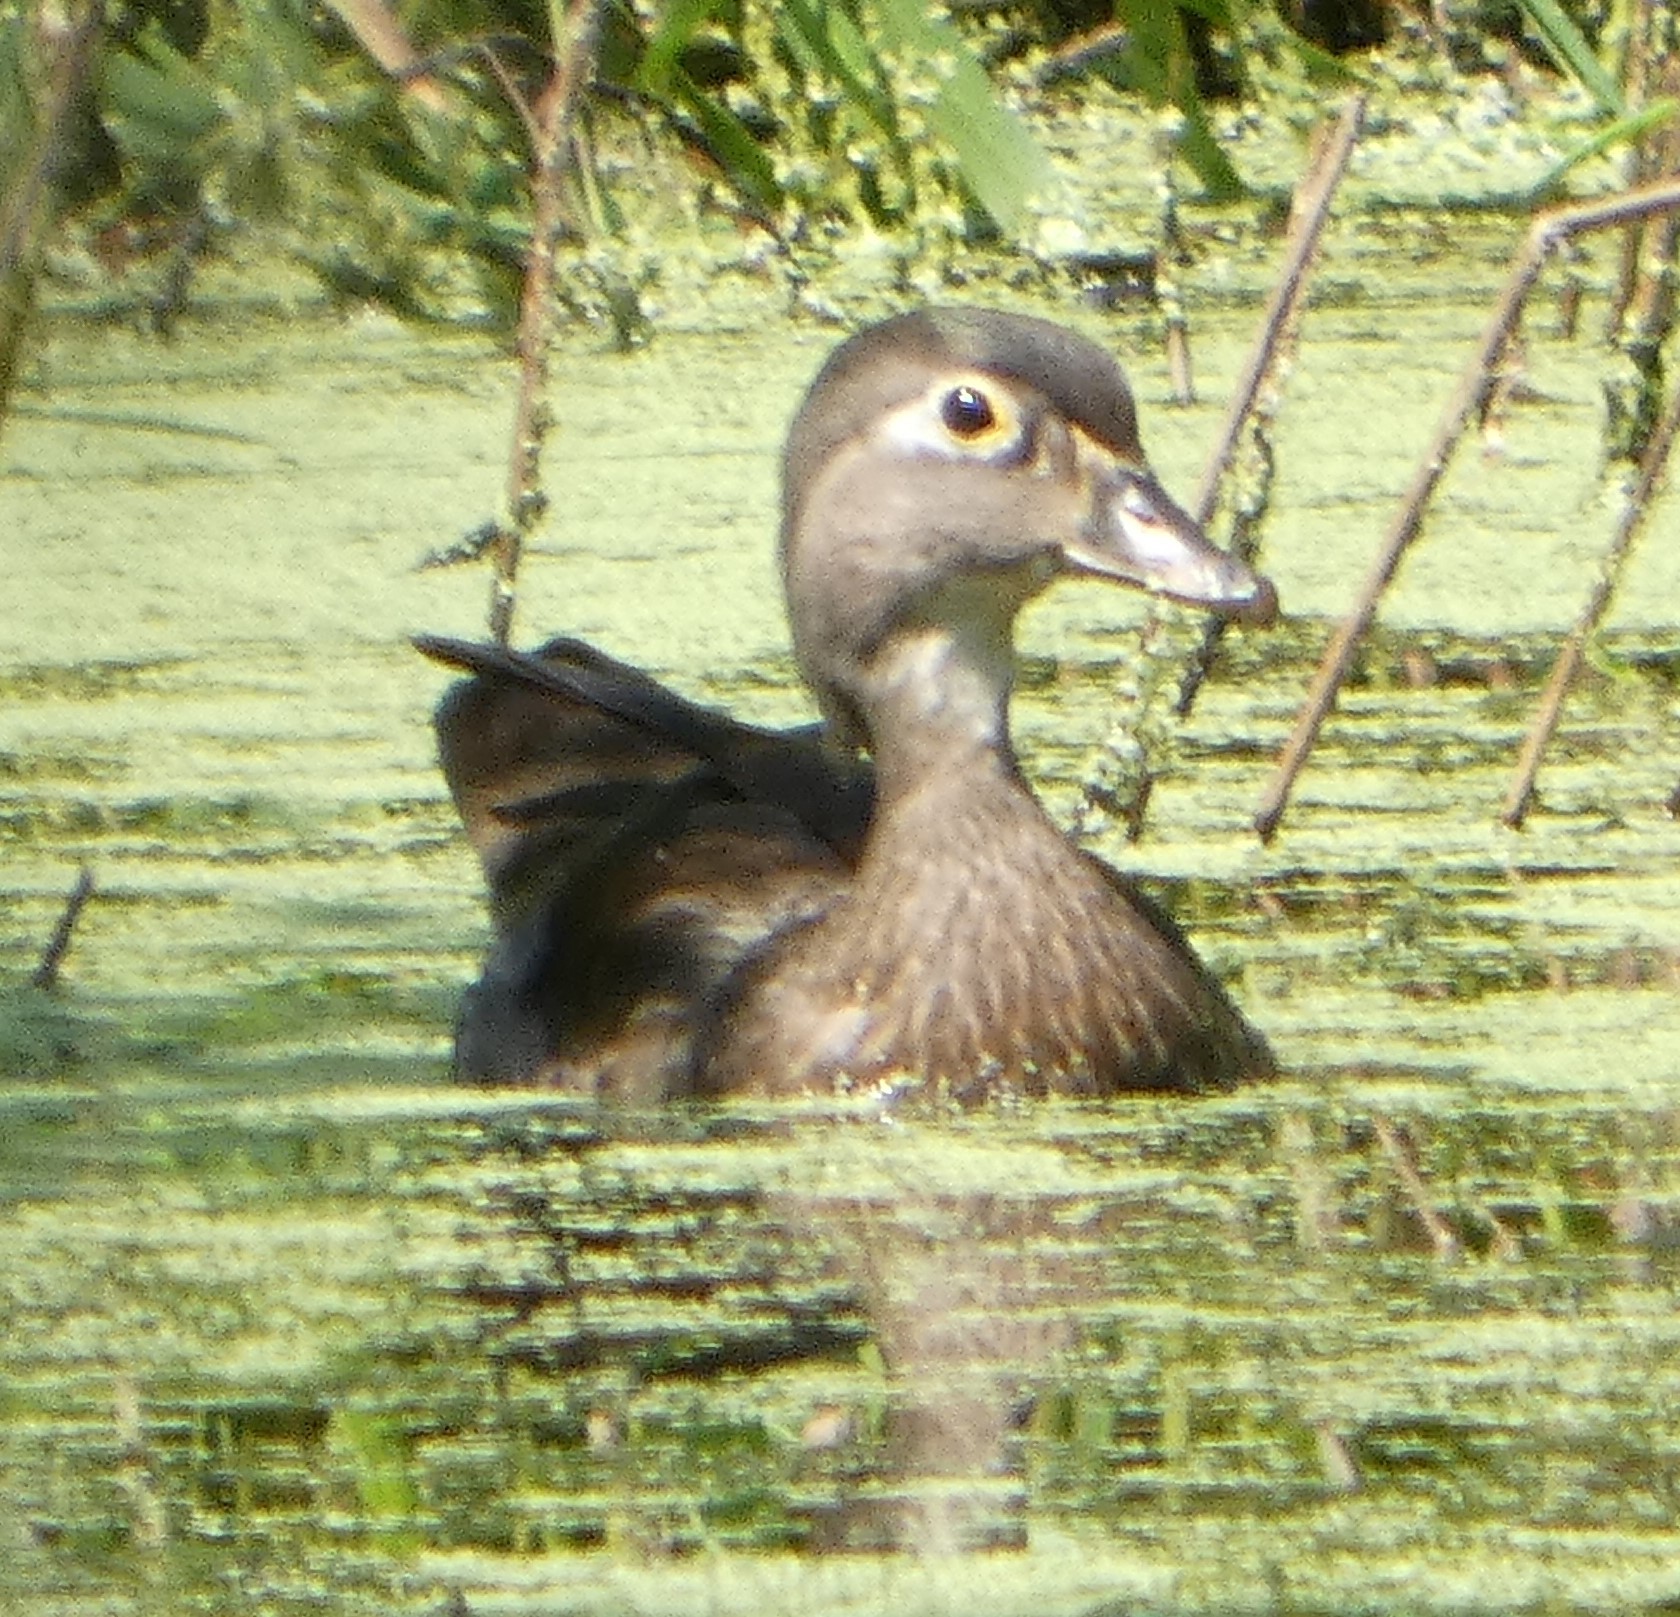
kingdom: Animalia
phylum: Chordata
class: Aves
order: Anseriformes
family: Anatidae
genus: Aix
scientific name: Aix sponsa
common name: Wood duck
